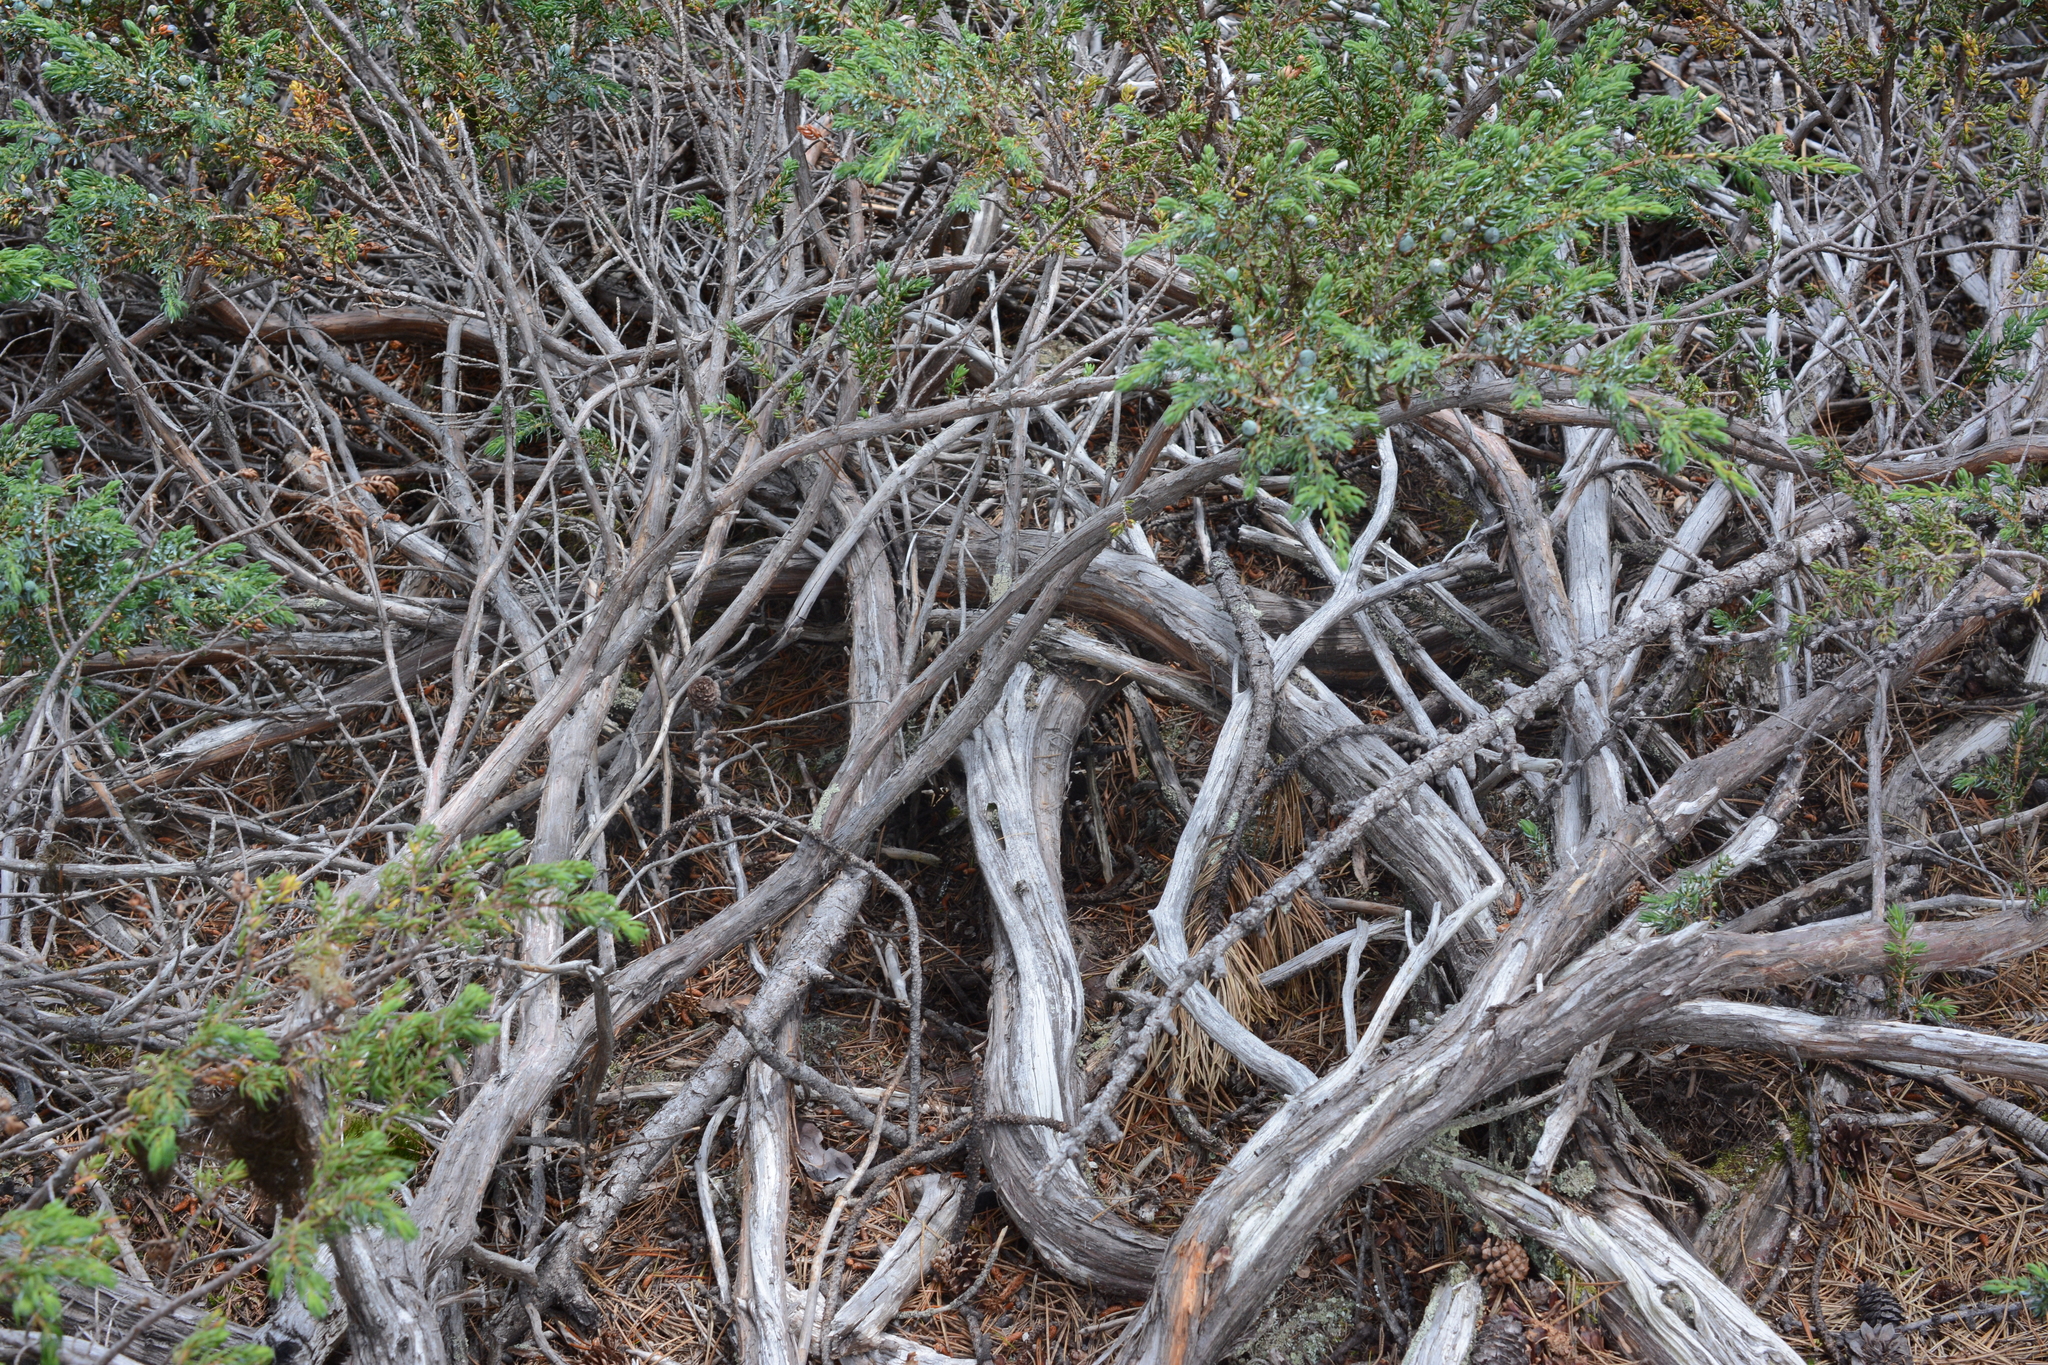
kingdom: Plantae
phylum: Tracheophyta
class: Pinopsida
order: Pinales
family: Cupressaceae
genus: Juniperus
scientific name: Juniperus communis
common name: Common juniper
